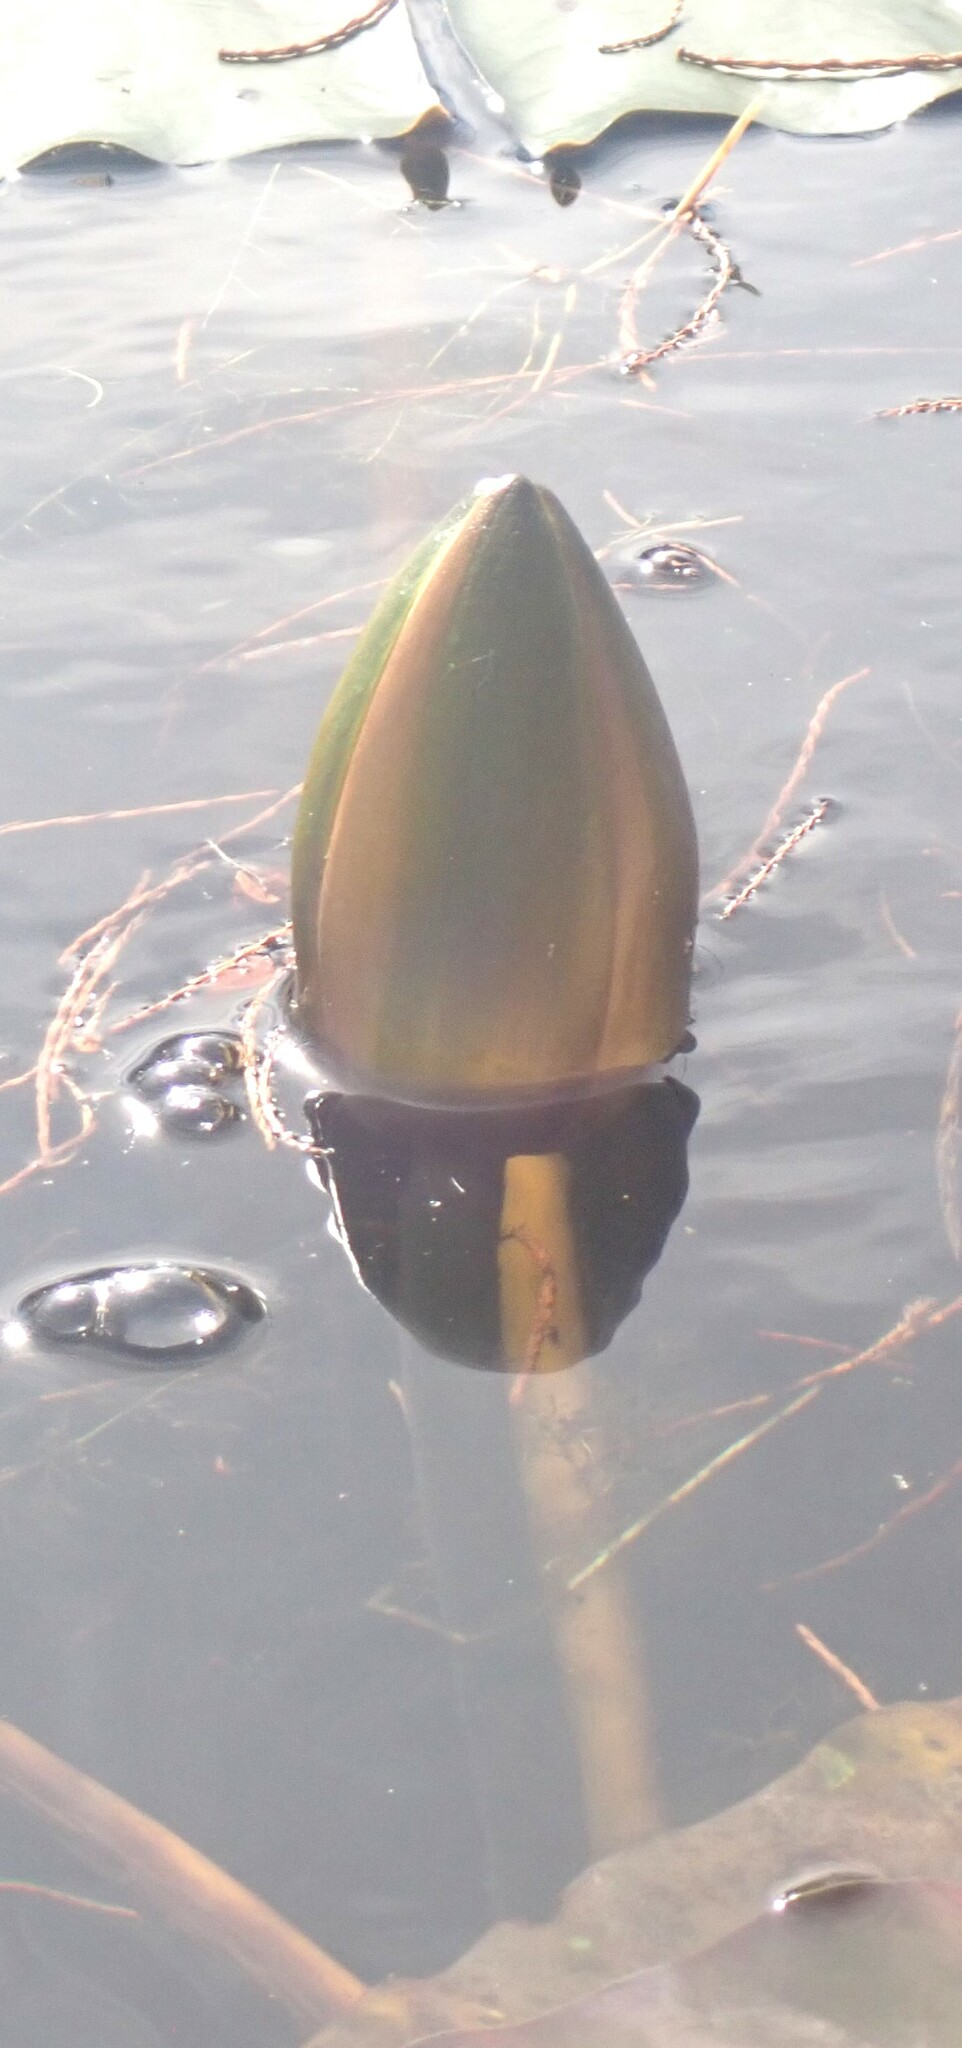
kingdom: Plantae
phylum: Tracheophyta
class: Magnoliopsida
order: Nymphaeales
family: Nymphaeaceae
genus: Nymphaea
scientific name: Nymphaea odorata
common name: Fragrant water-lily
